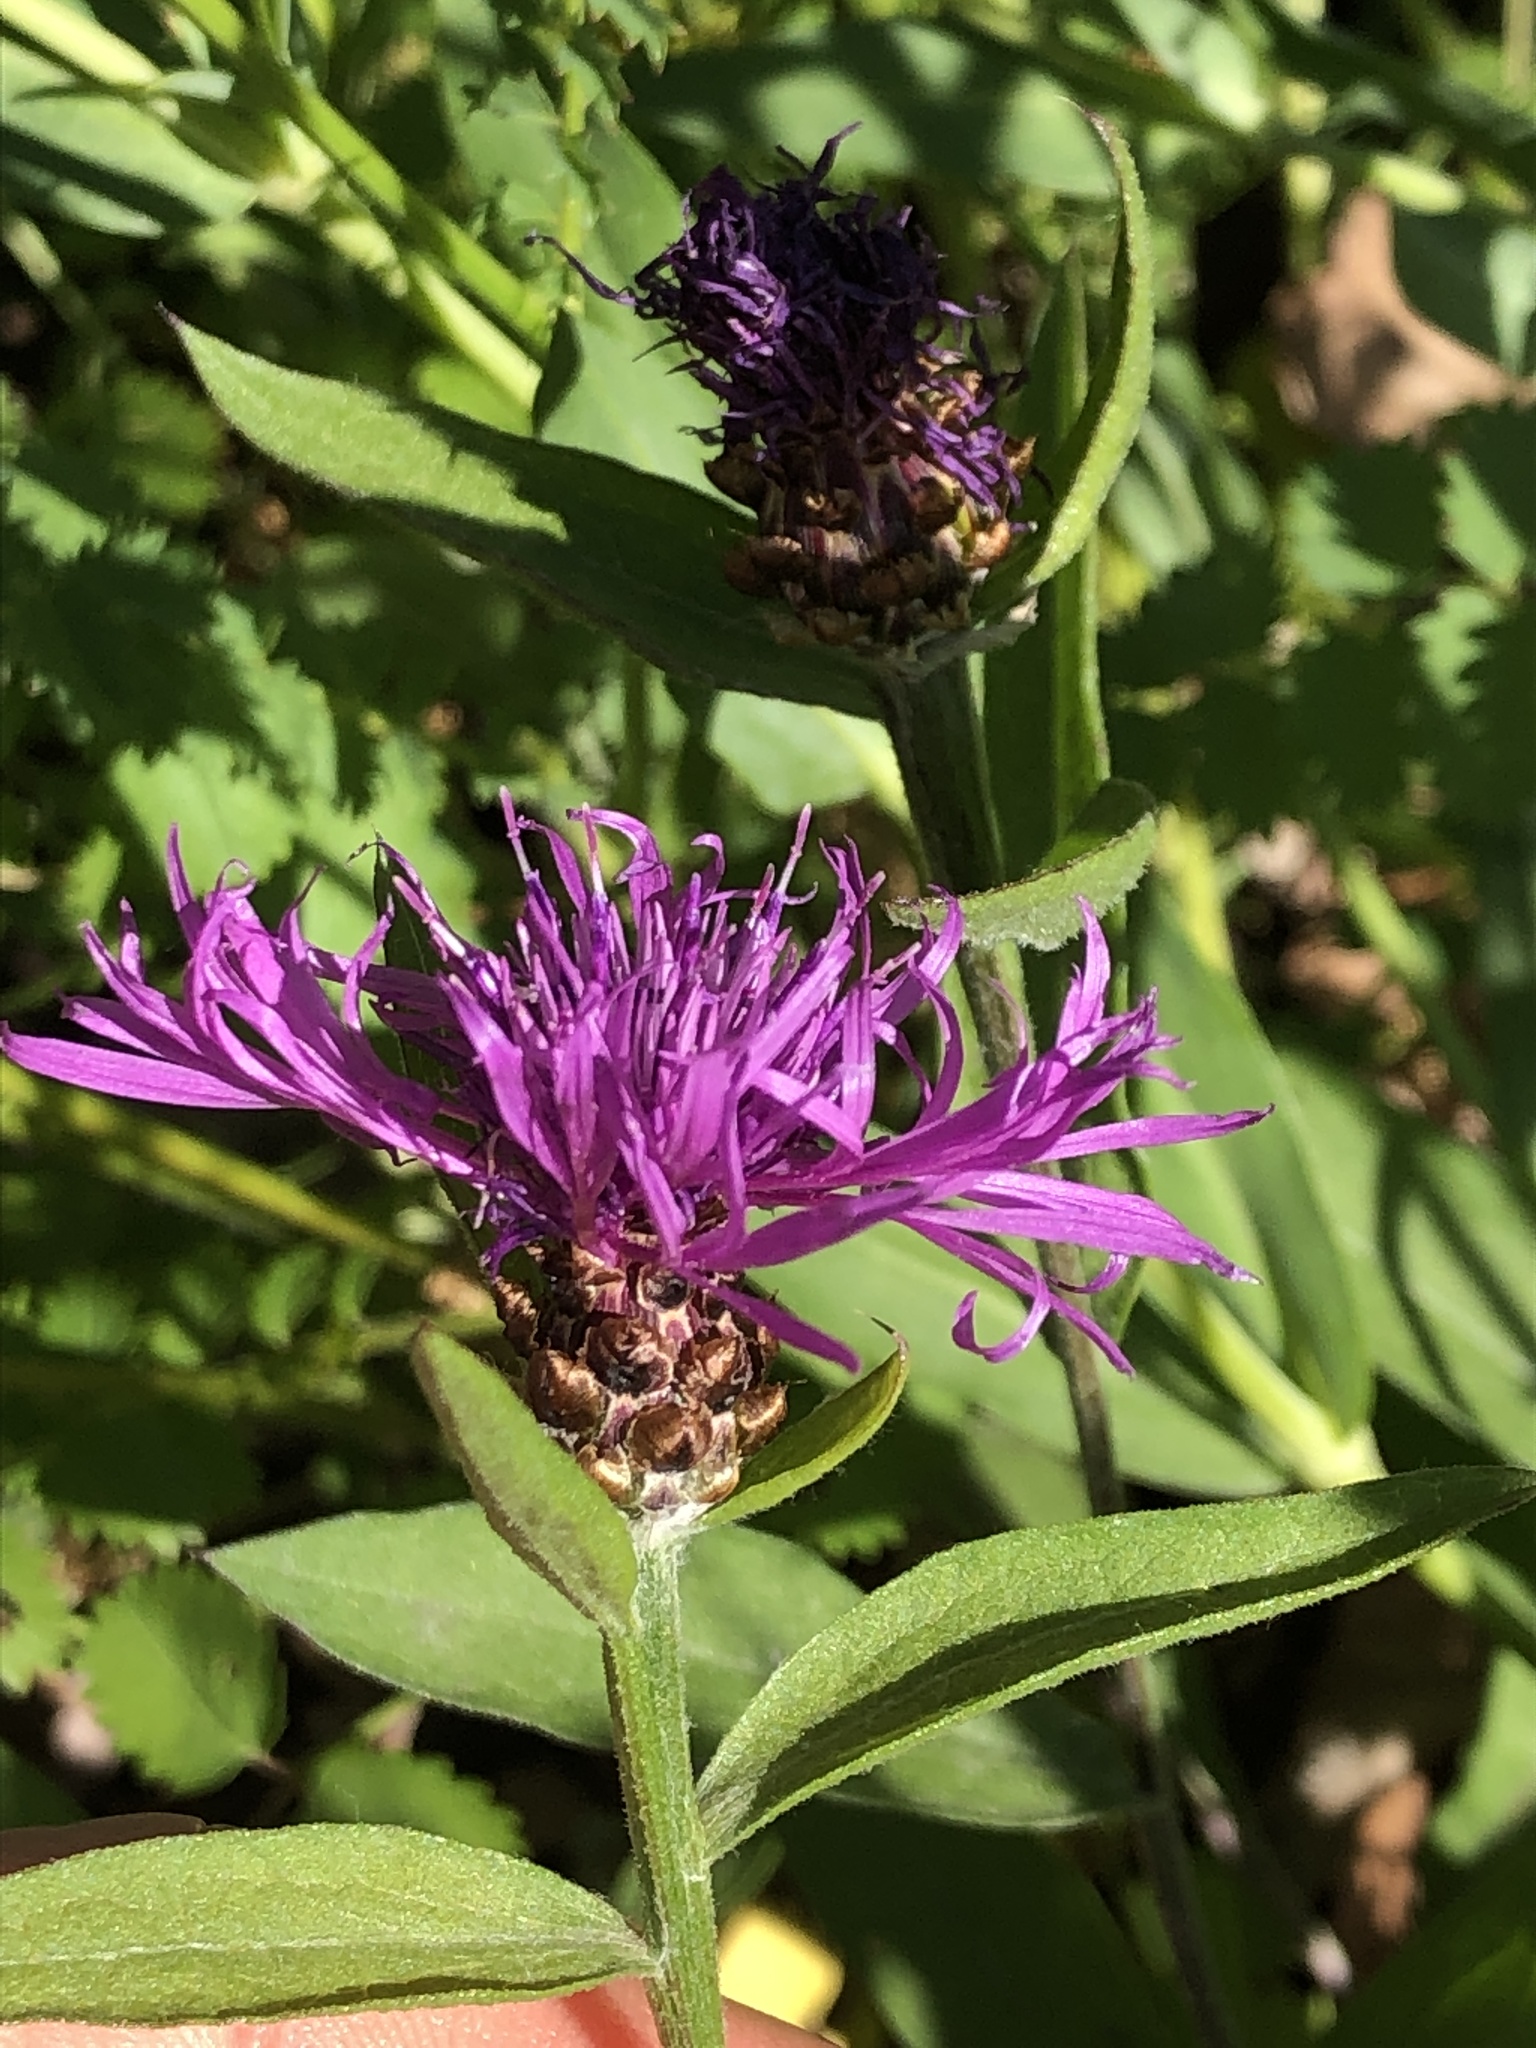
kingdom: Plantae
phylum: Tracheophyta
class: Magnoliopsida
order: Asterales
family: Asteraceae
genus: Centaurea
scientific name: Centaurea jacea
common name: Brown knapweed
